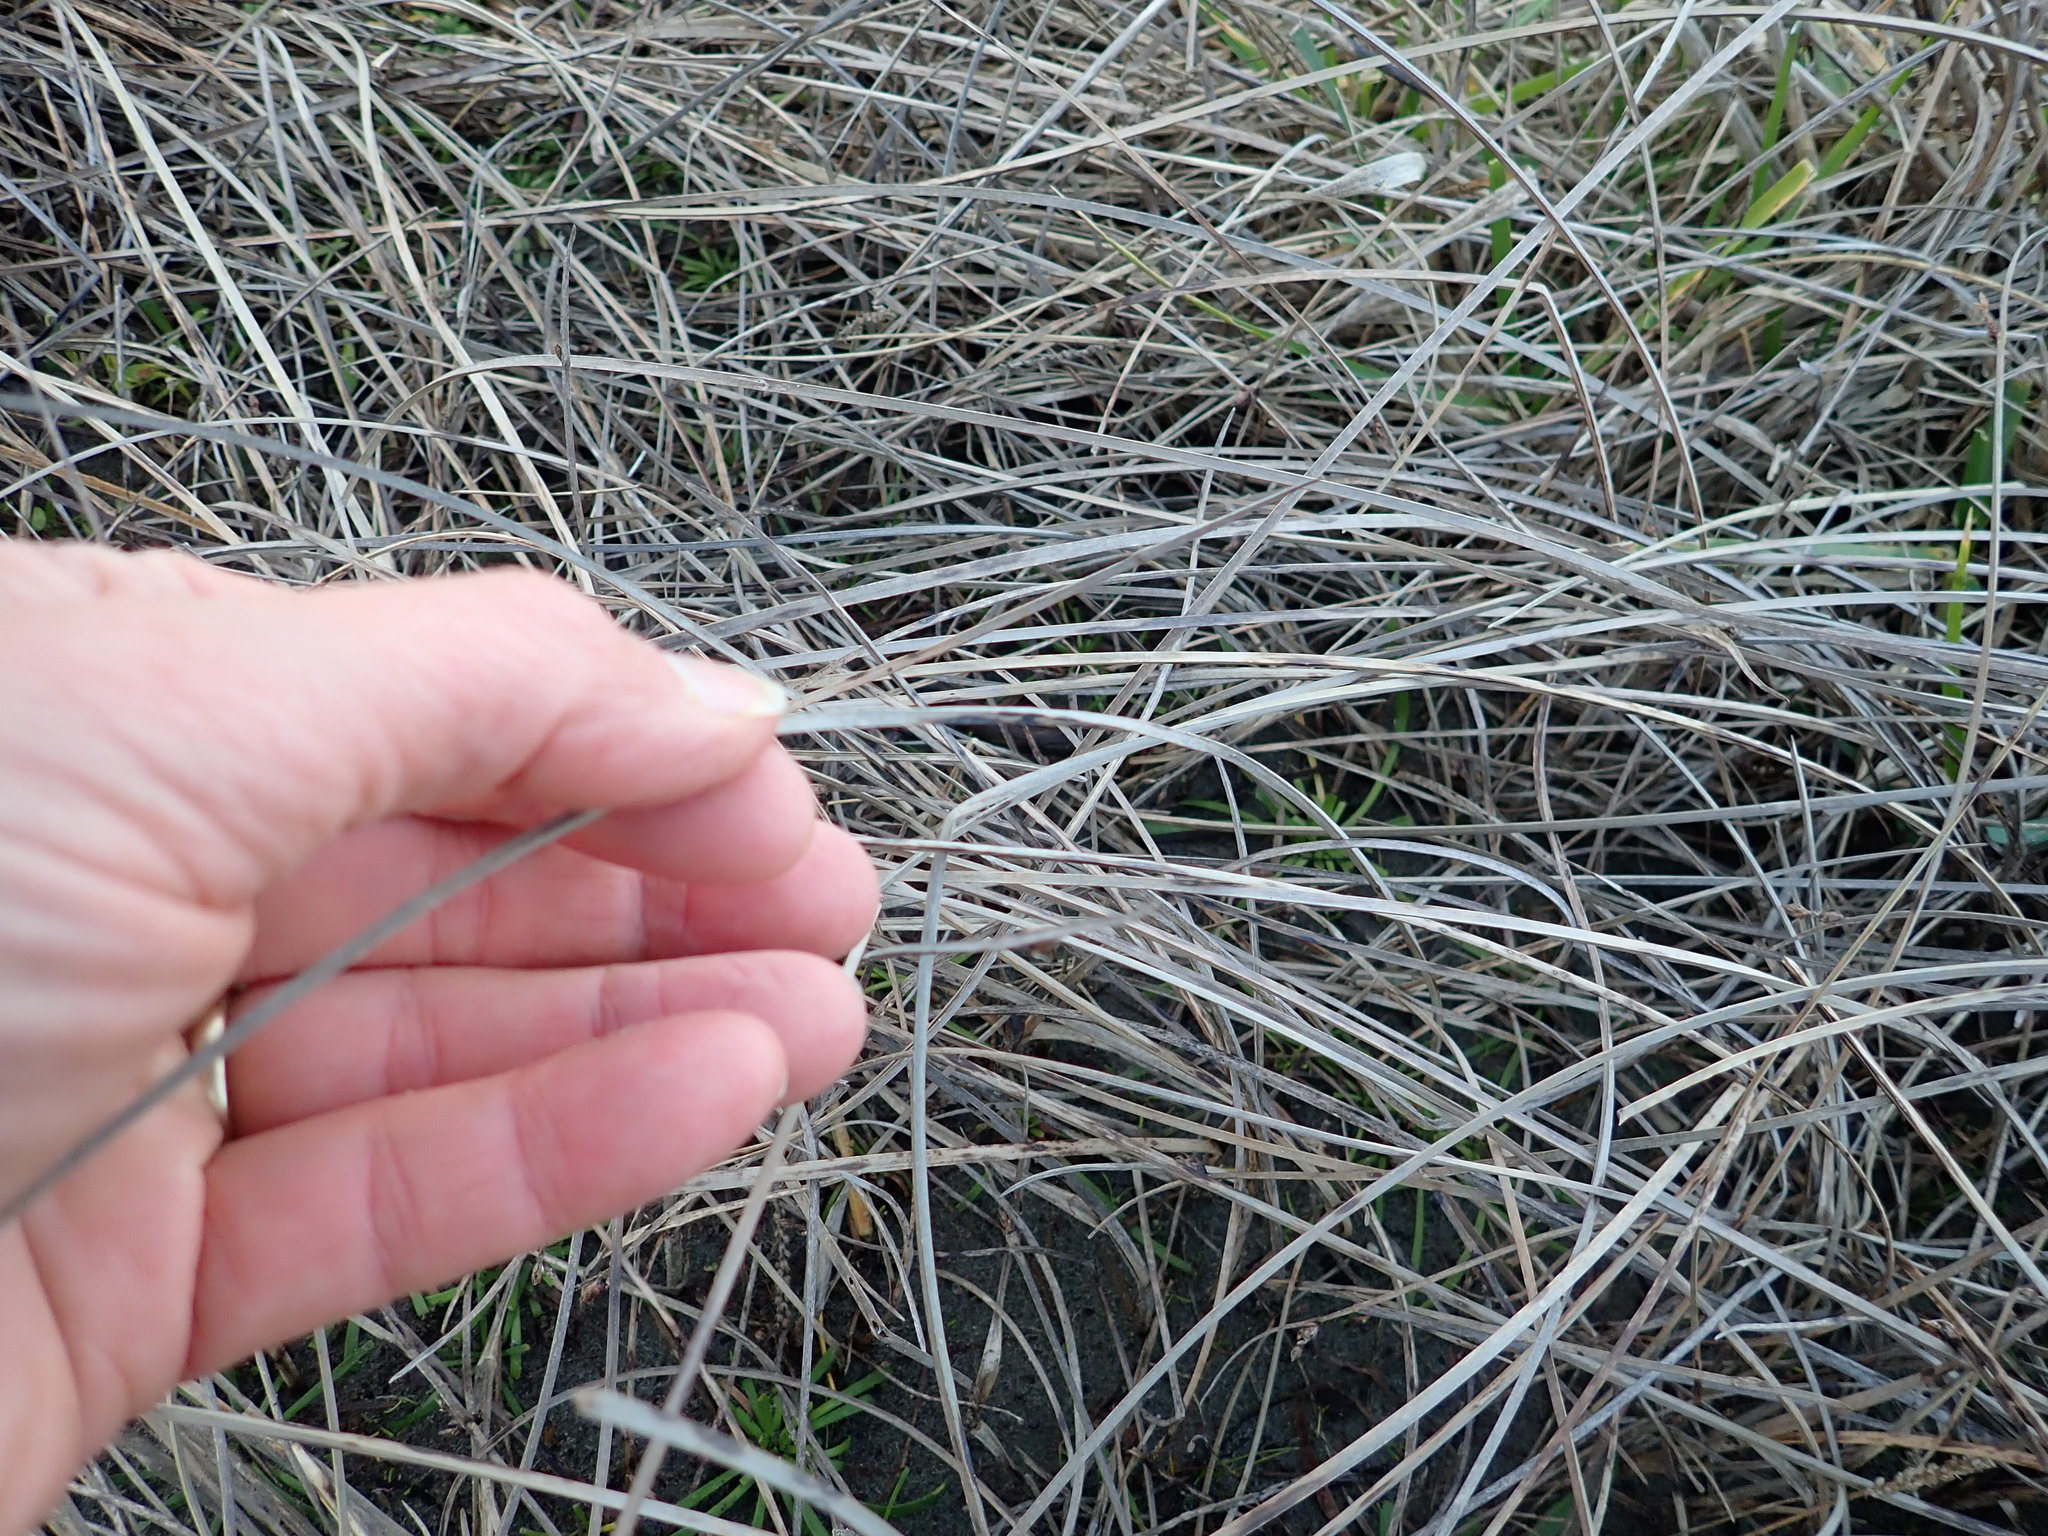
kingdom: Plantae
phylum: Tracheophyta
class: Liliopsida
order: Poales
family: Cyperaceae
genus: Schoenoplectus
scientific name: Schoenoplectus pungens
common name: Sharp club-rush
